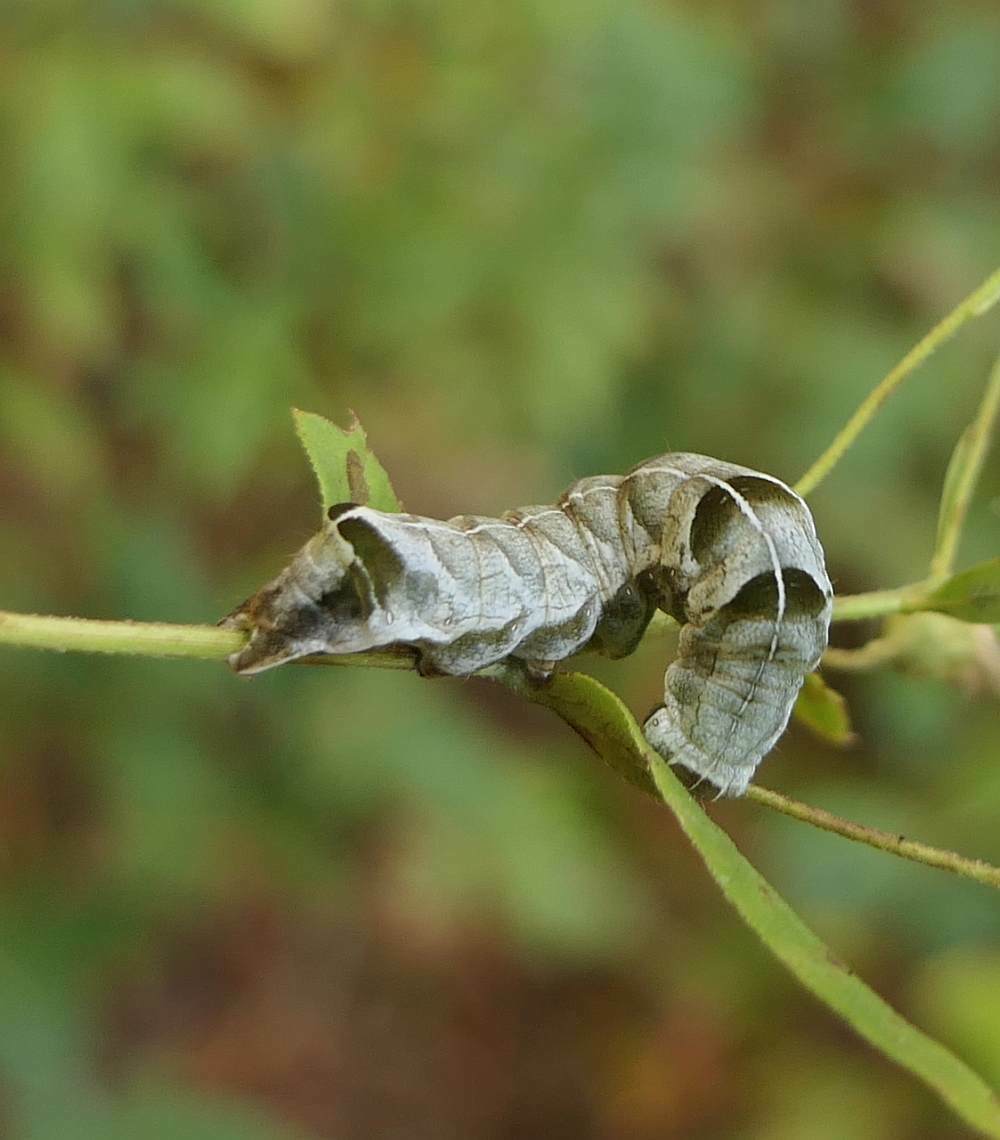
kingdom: Animalia
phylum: Arthropoda
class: Insecta
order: Lepidoptera
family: Noctuidae
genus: Melanchra
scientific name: Melanchra adjuncta
